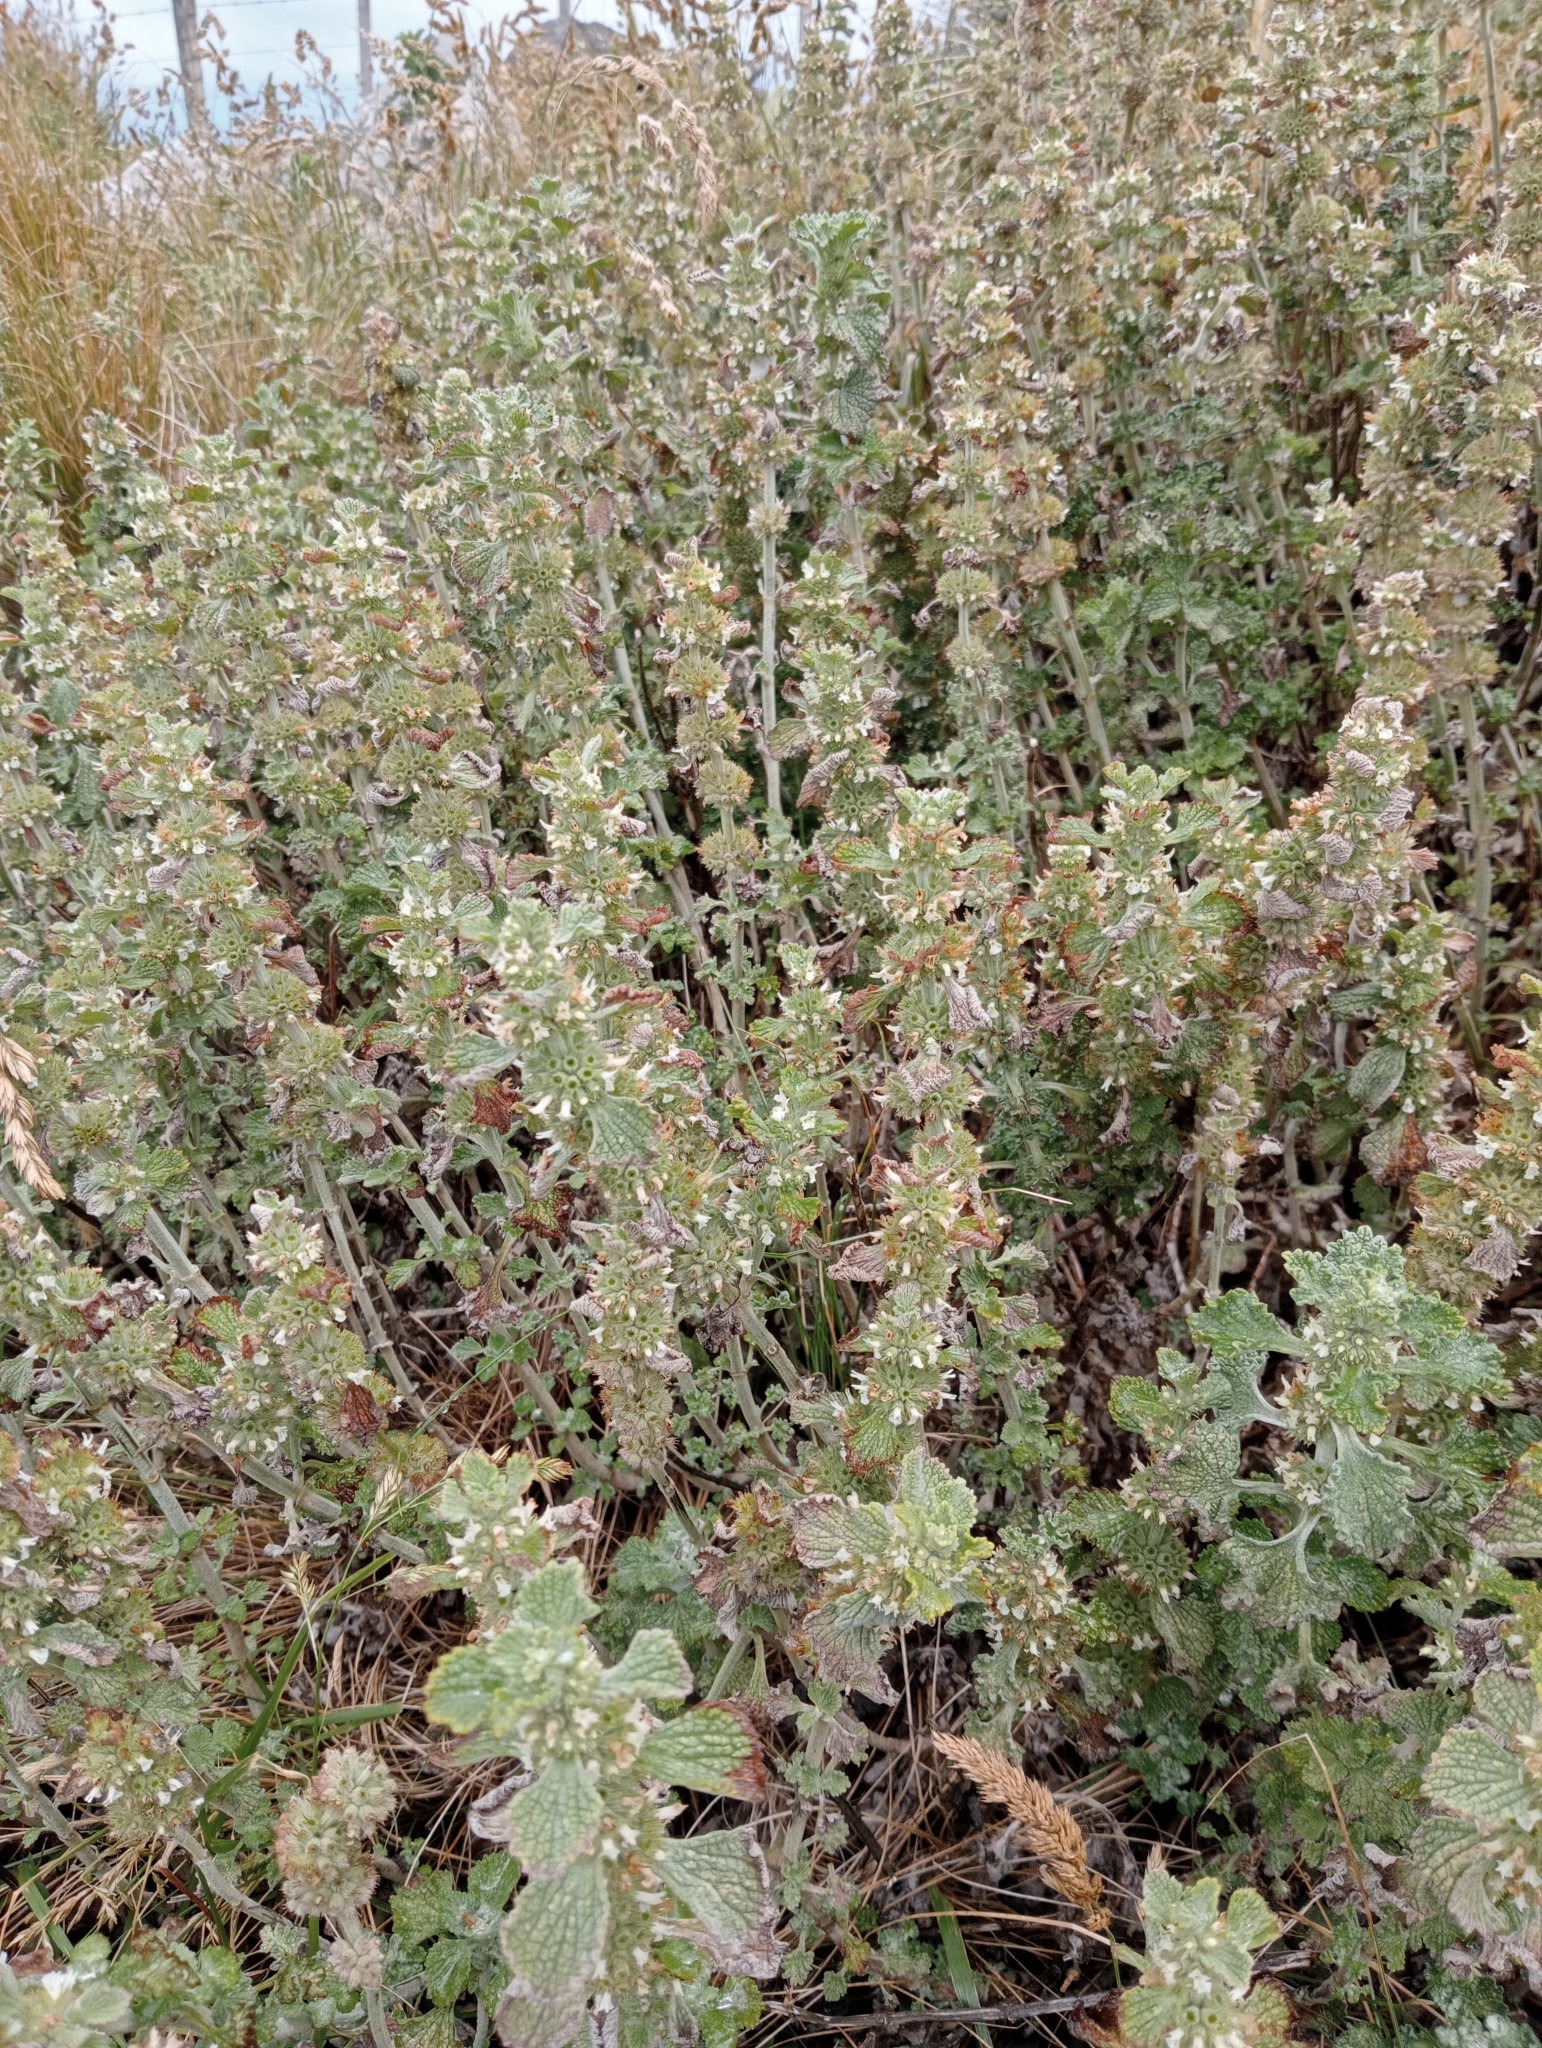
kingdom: Plantae
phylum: Tracheophyta
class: Magnoliopsida
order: Lamiales
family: Lamiaceae
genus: Marrubium
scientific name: Marrubium vulgare
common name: Horehound
